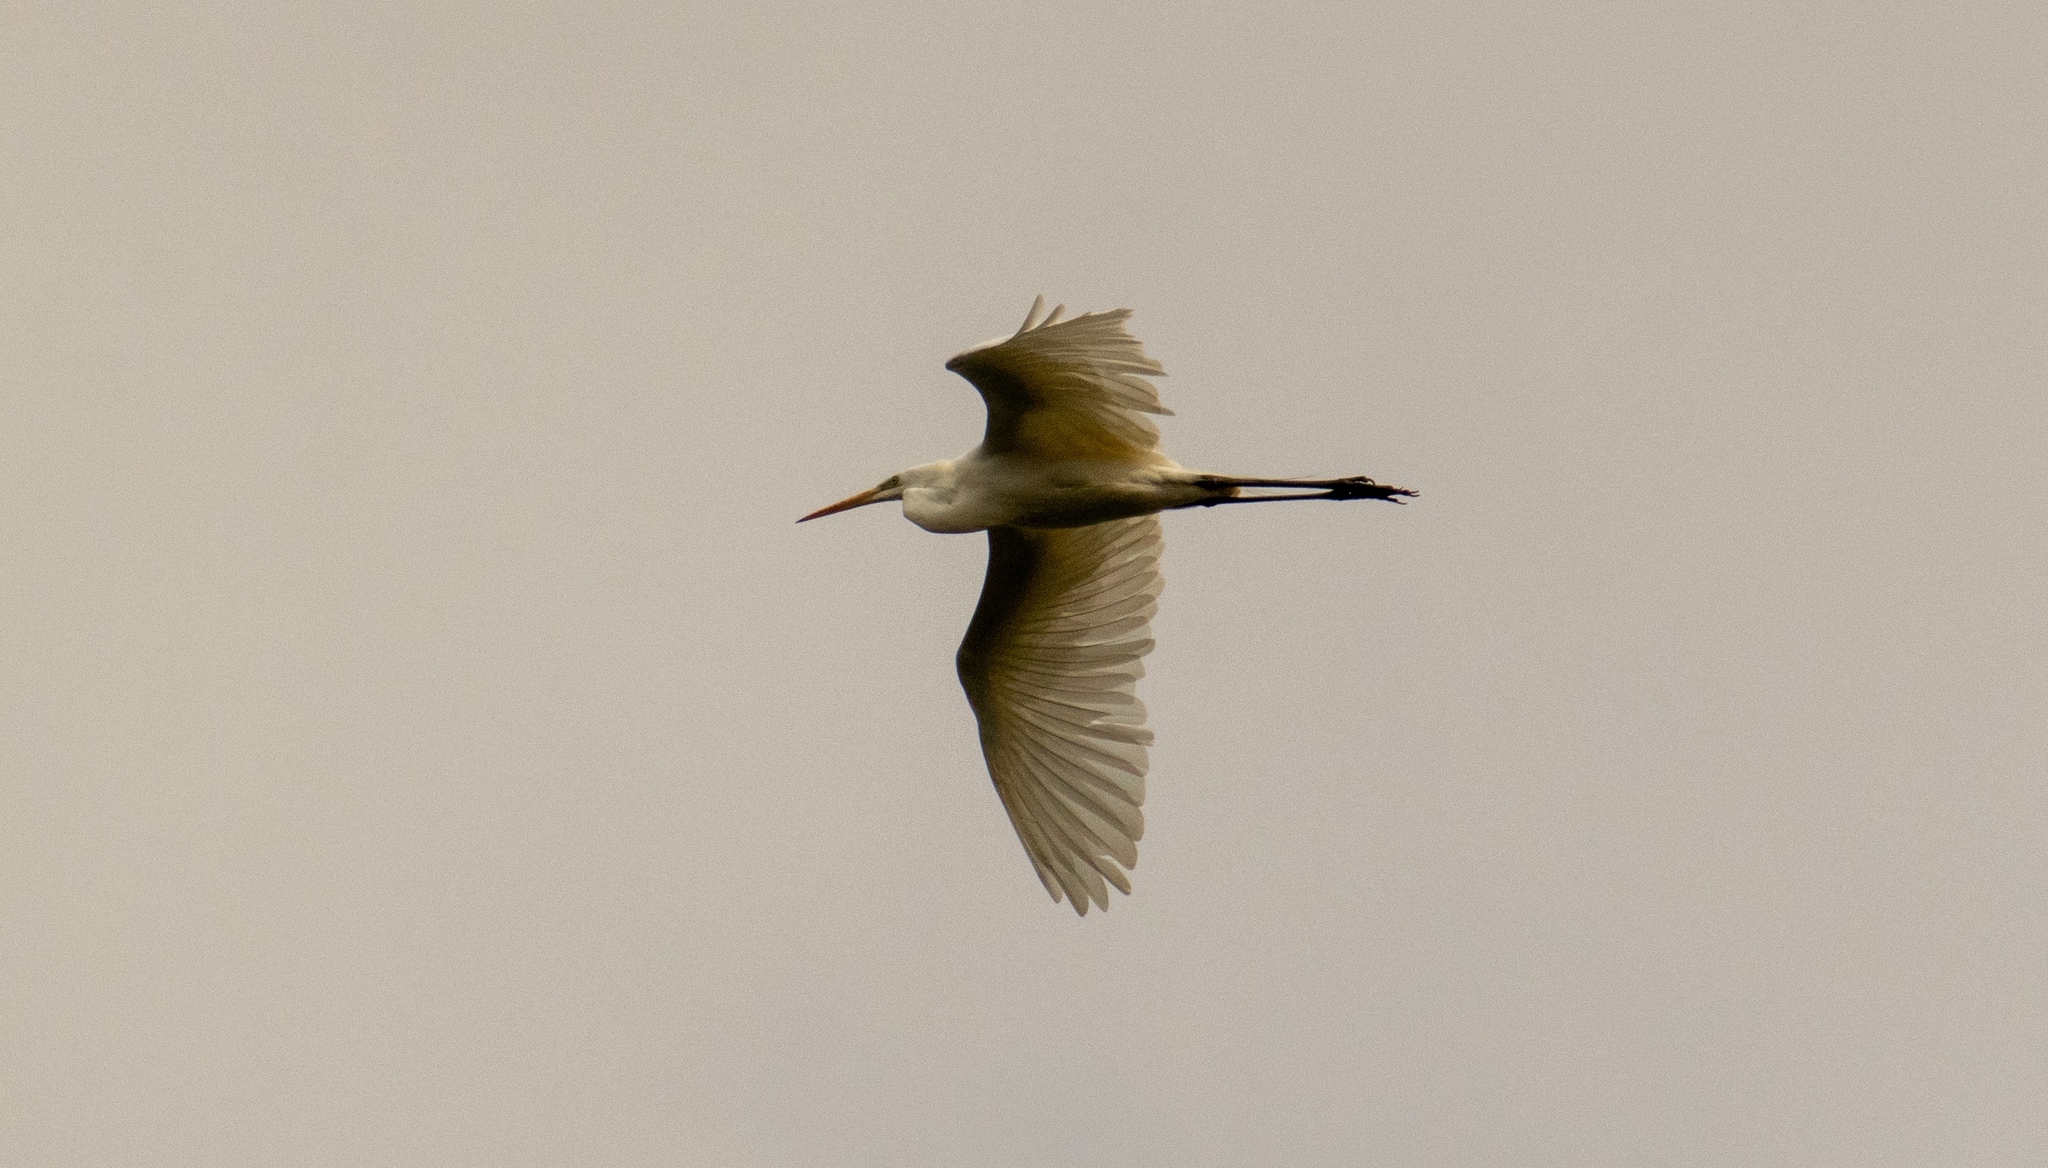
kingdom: Animalia
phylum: Chordata
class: Aves
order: Pelecaniformes
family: Ardeidae
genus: Ardea
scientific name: Ardea alba
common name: Great egret
